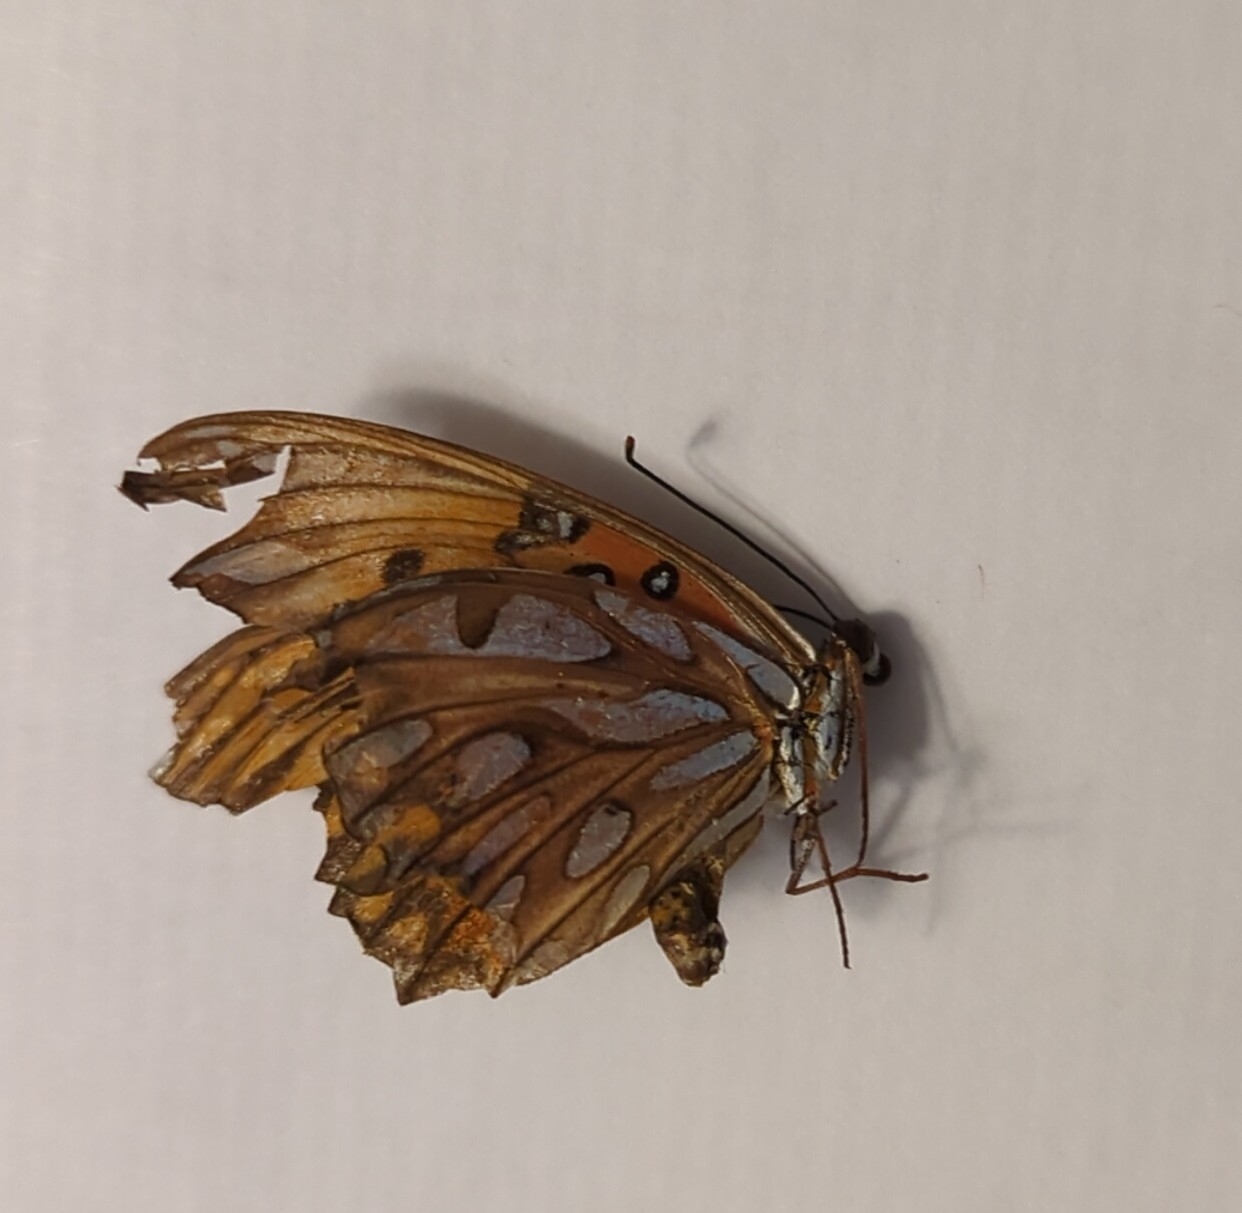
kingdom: Animalia
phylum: Arthropoda
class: Insecta
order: Lepidoptera
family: Nymphalidae
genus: Dione
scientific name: Dione vanillae
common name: Gulf fritillary
